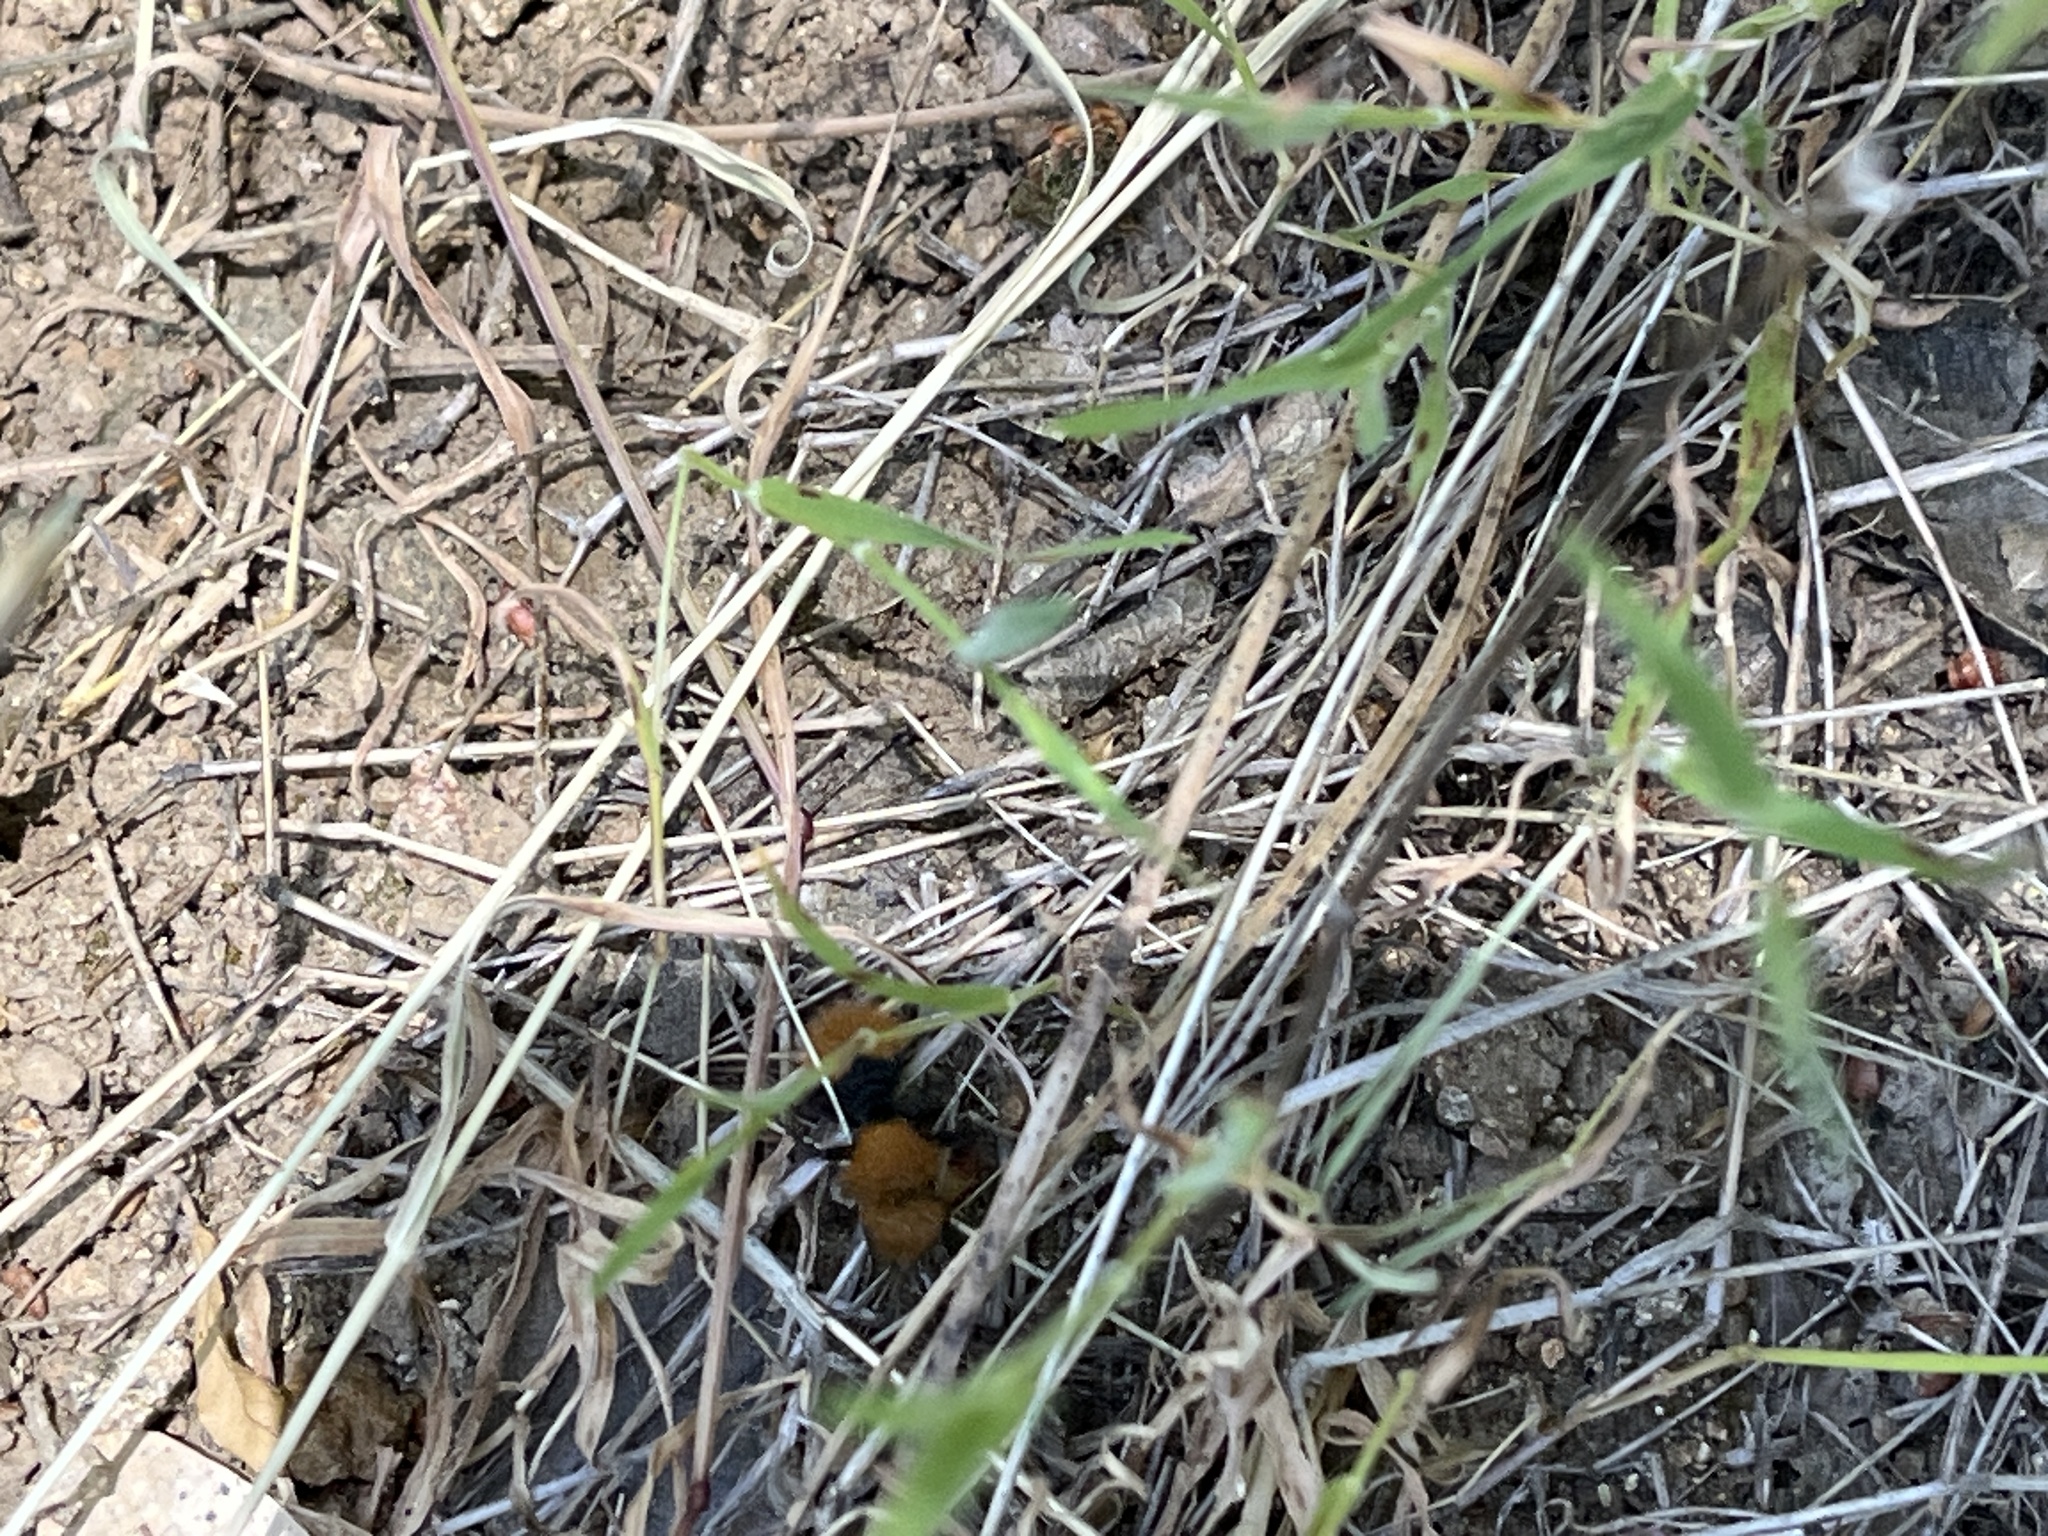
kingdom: Animalia
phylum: Arthropoda
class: Insecta
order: Hymenoptera
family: Mutillidae
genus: Dasymutilla
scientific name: Dasymutilla
